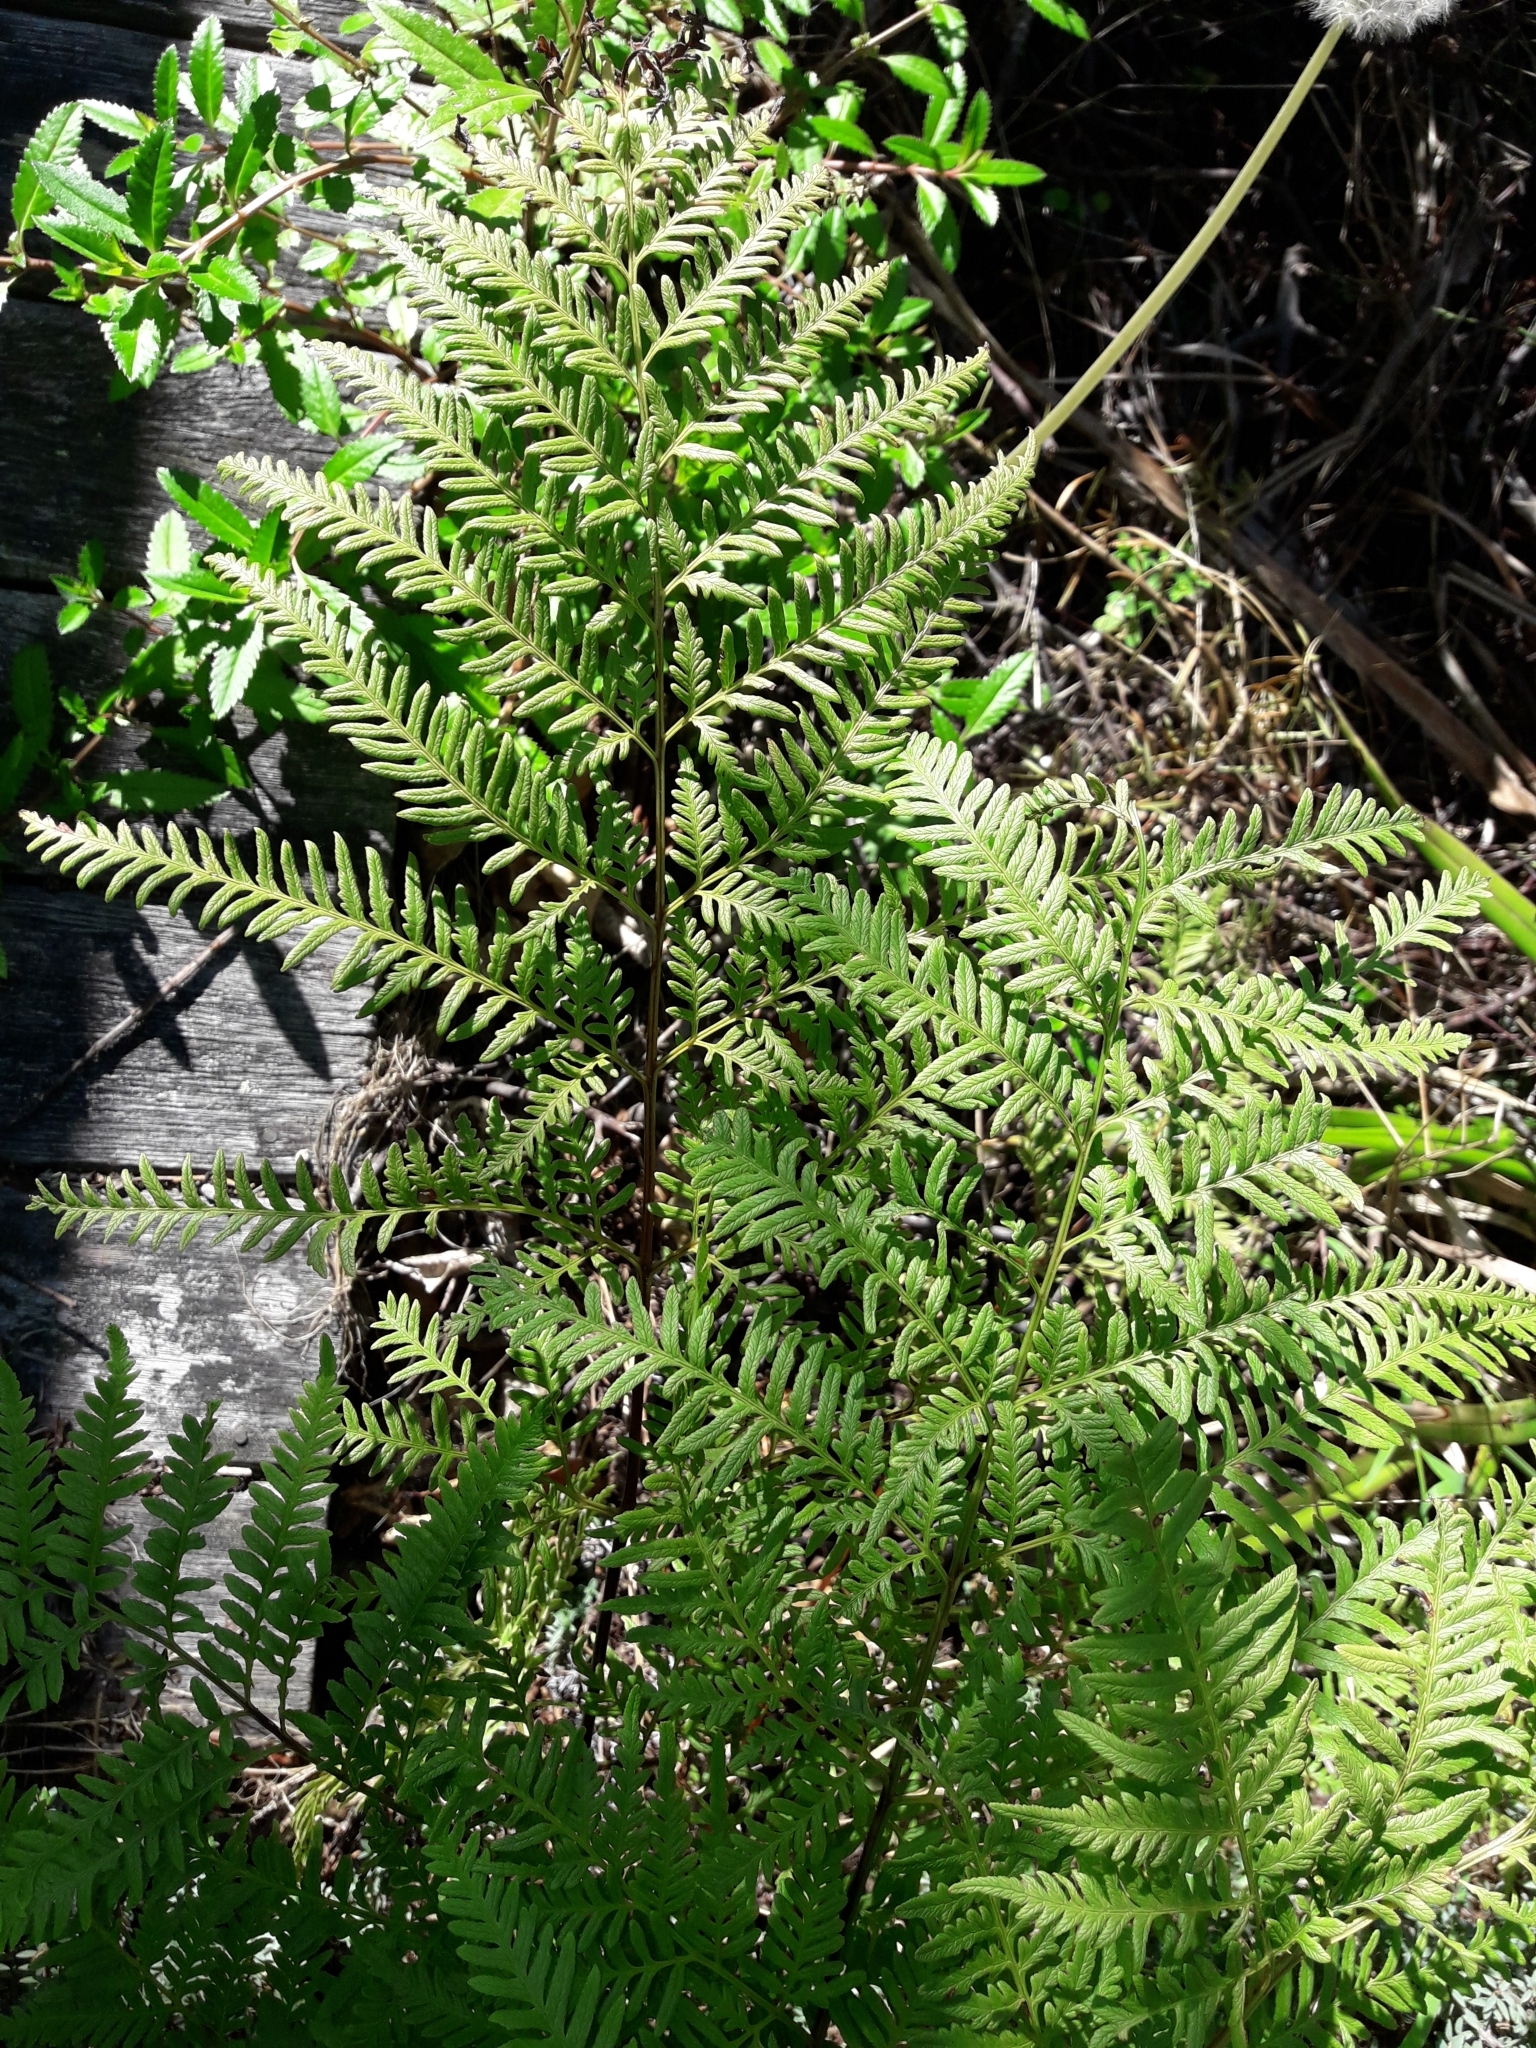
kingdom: Plantae
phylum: Tracheophyta
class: Polypodiopsida
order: Polypodiales
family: Pteridaceae
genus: Pteris
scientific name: Pteris tremula
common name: Australian brake
